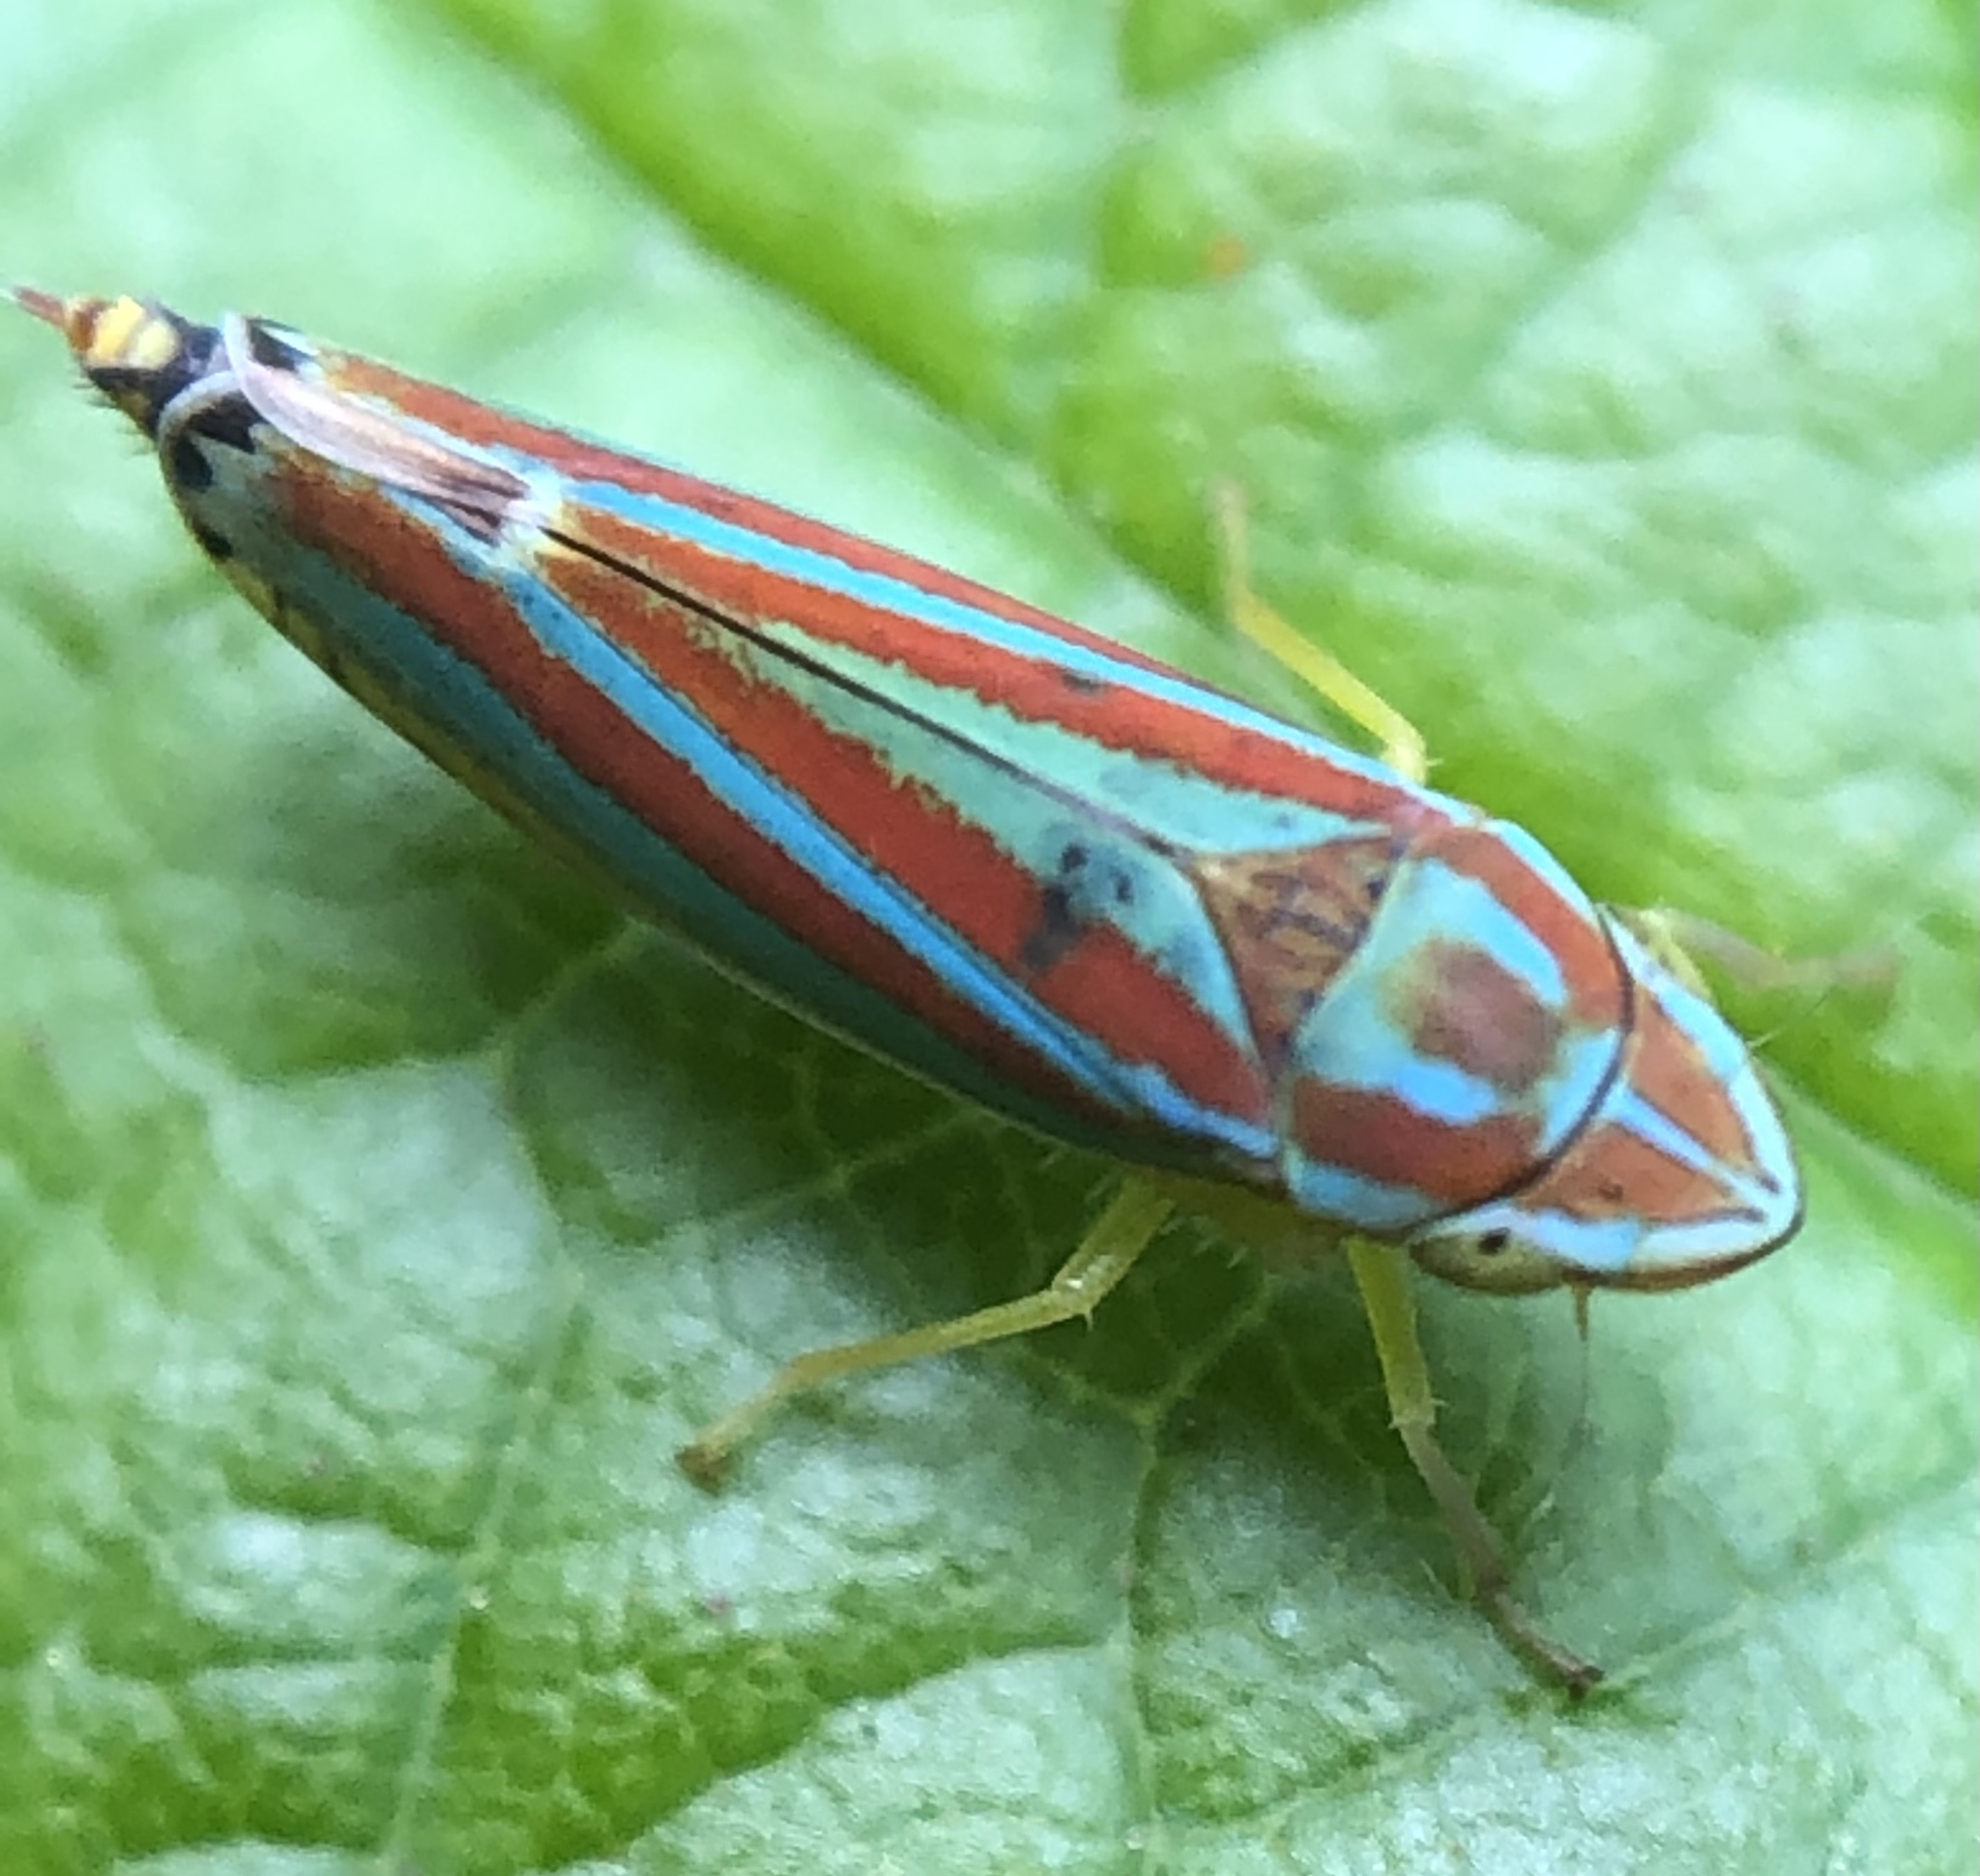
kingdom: Animalia
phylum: Arthropoda
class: Insecta
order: Hemiptera
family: Cicadellidae
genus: Graphocephala
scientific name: Graphocephala versuta
